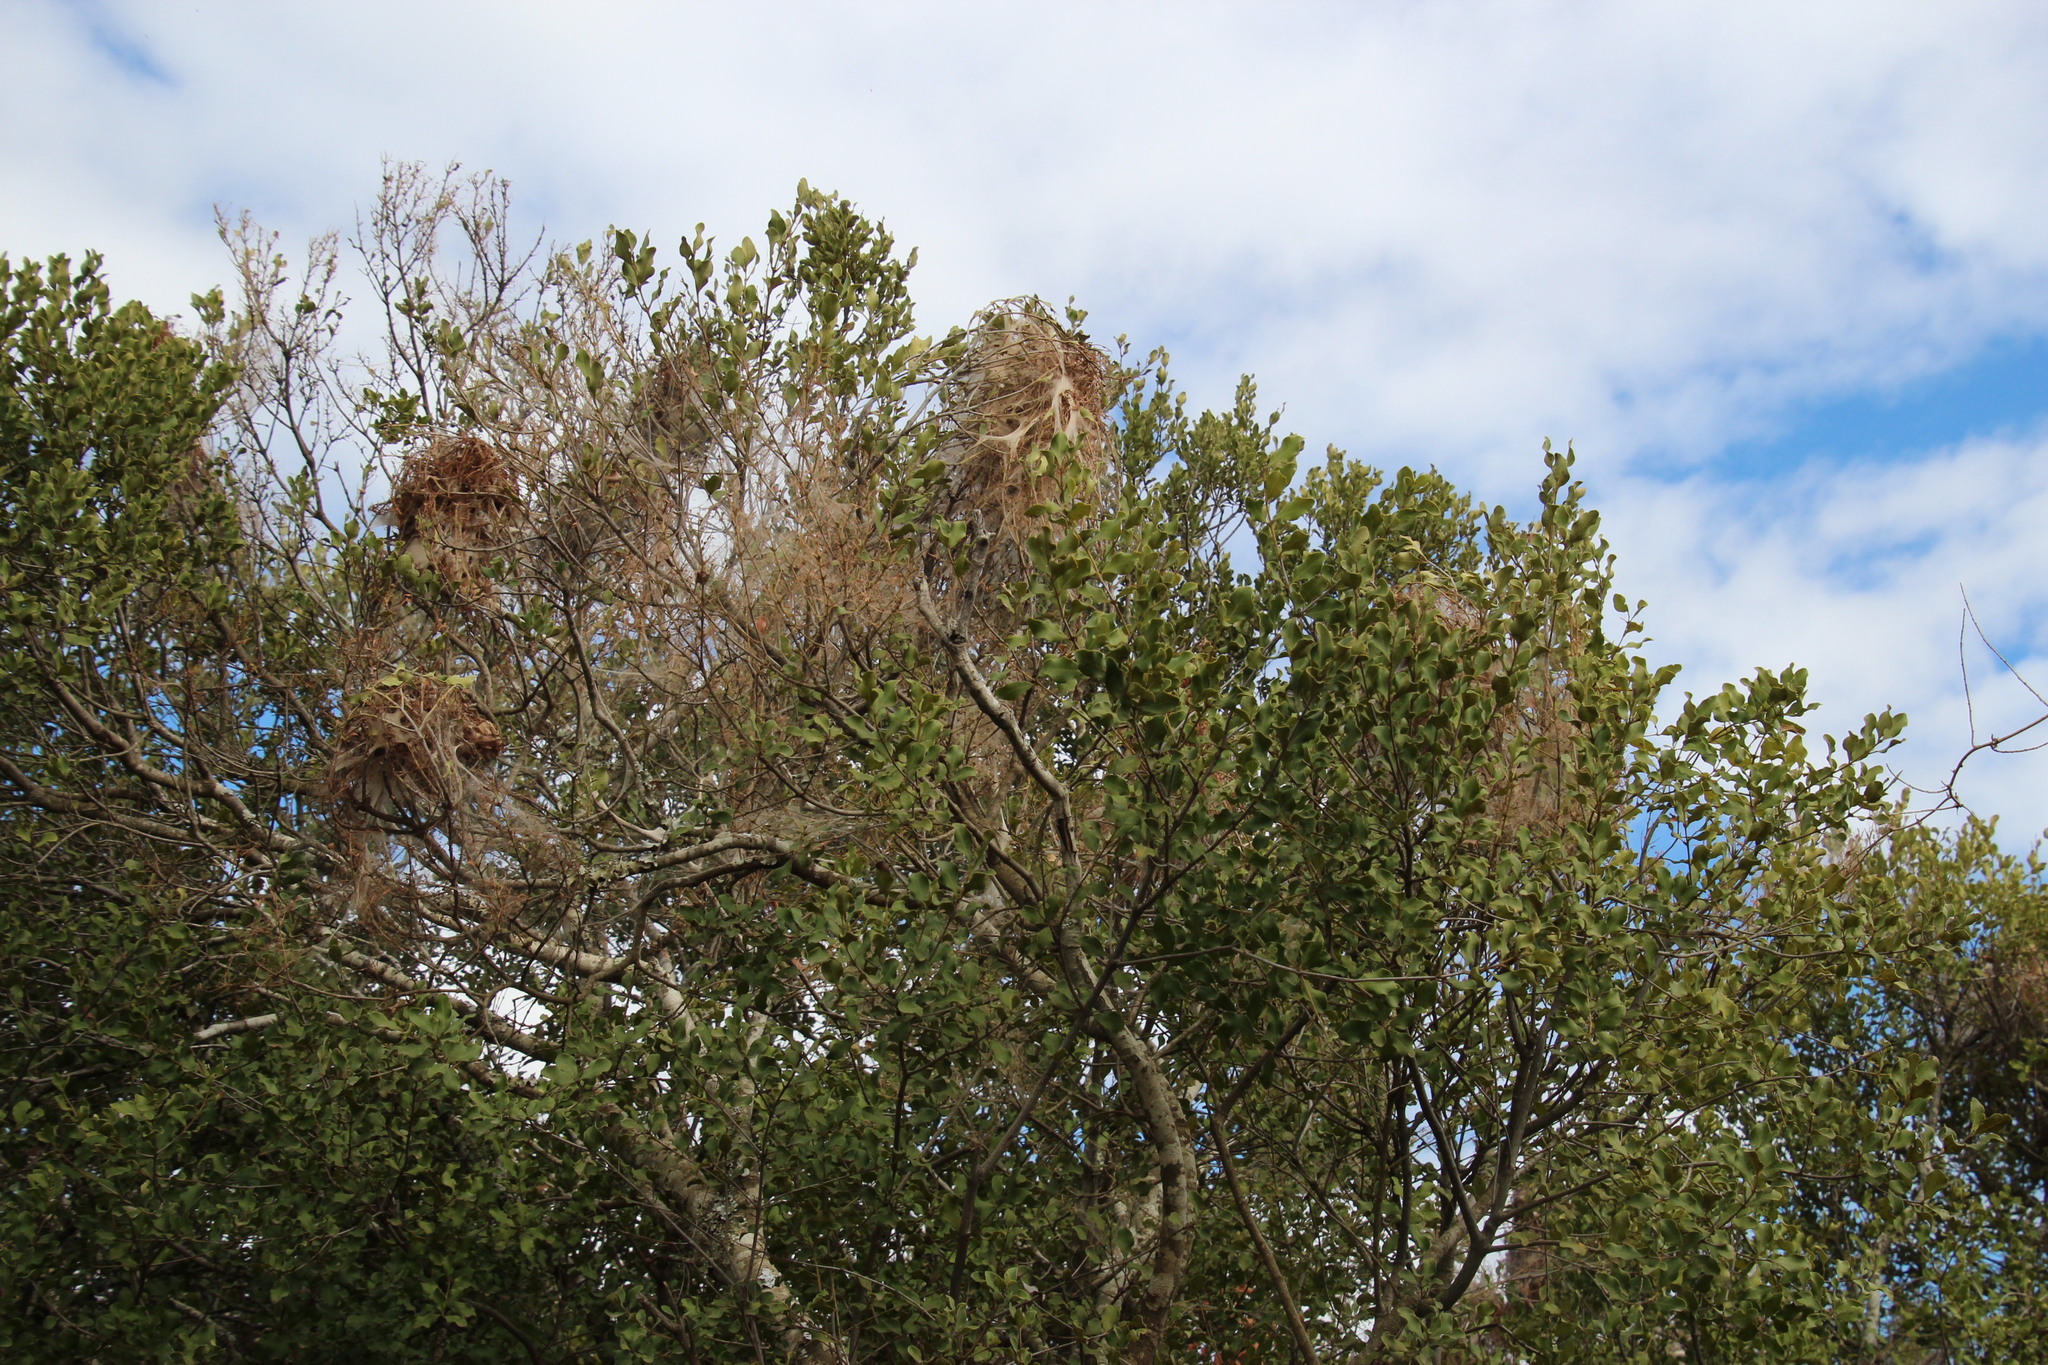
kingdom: Plantae
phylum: Tracheophyta
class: Magnoliopsida
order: Ericales
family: Ebenaceae
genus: Euclea
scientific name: Euclea undulata
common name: Small-leaved guarri
